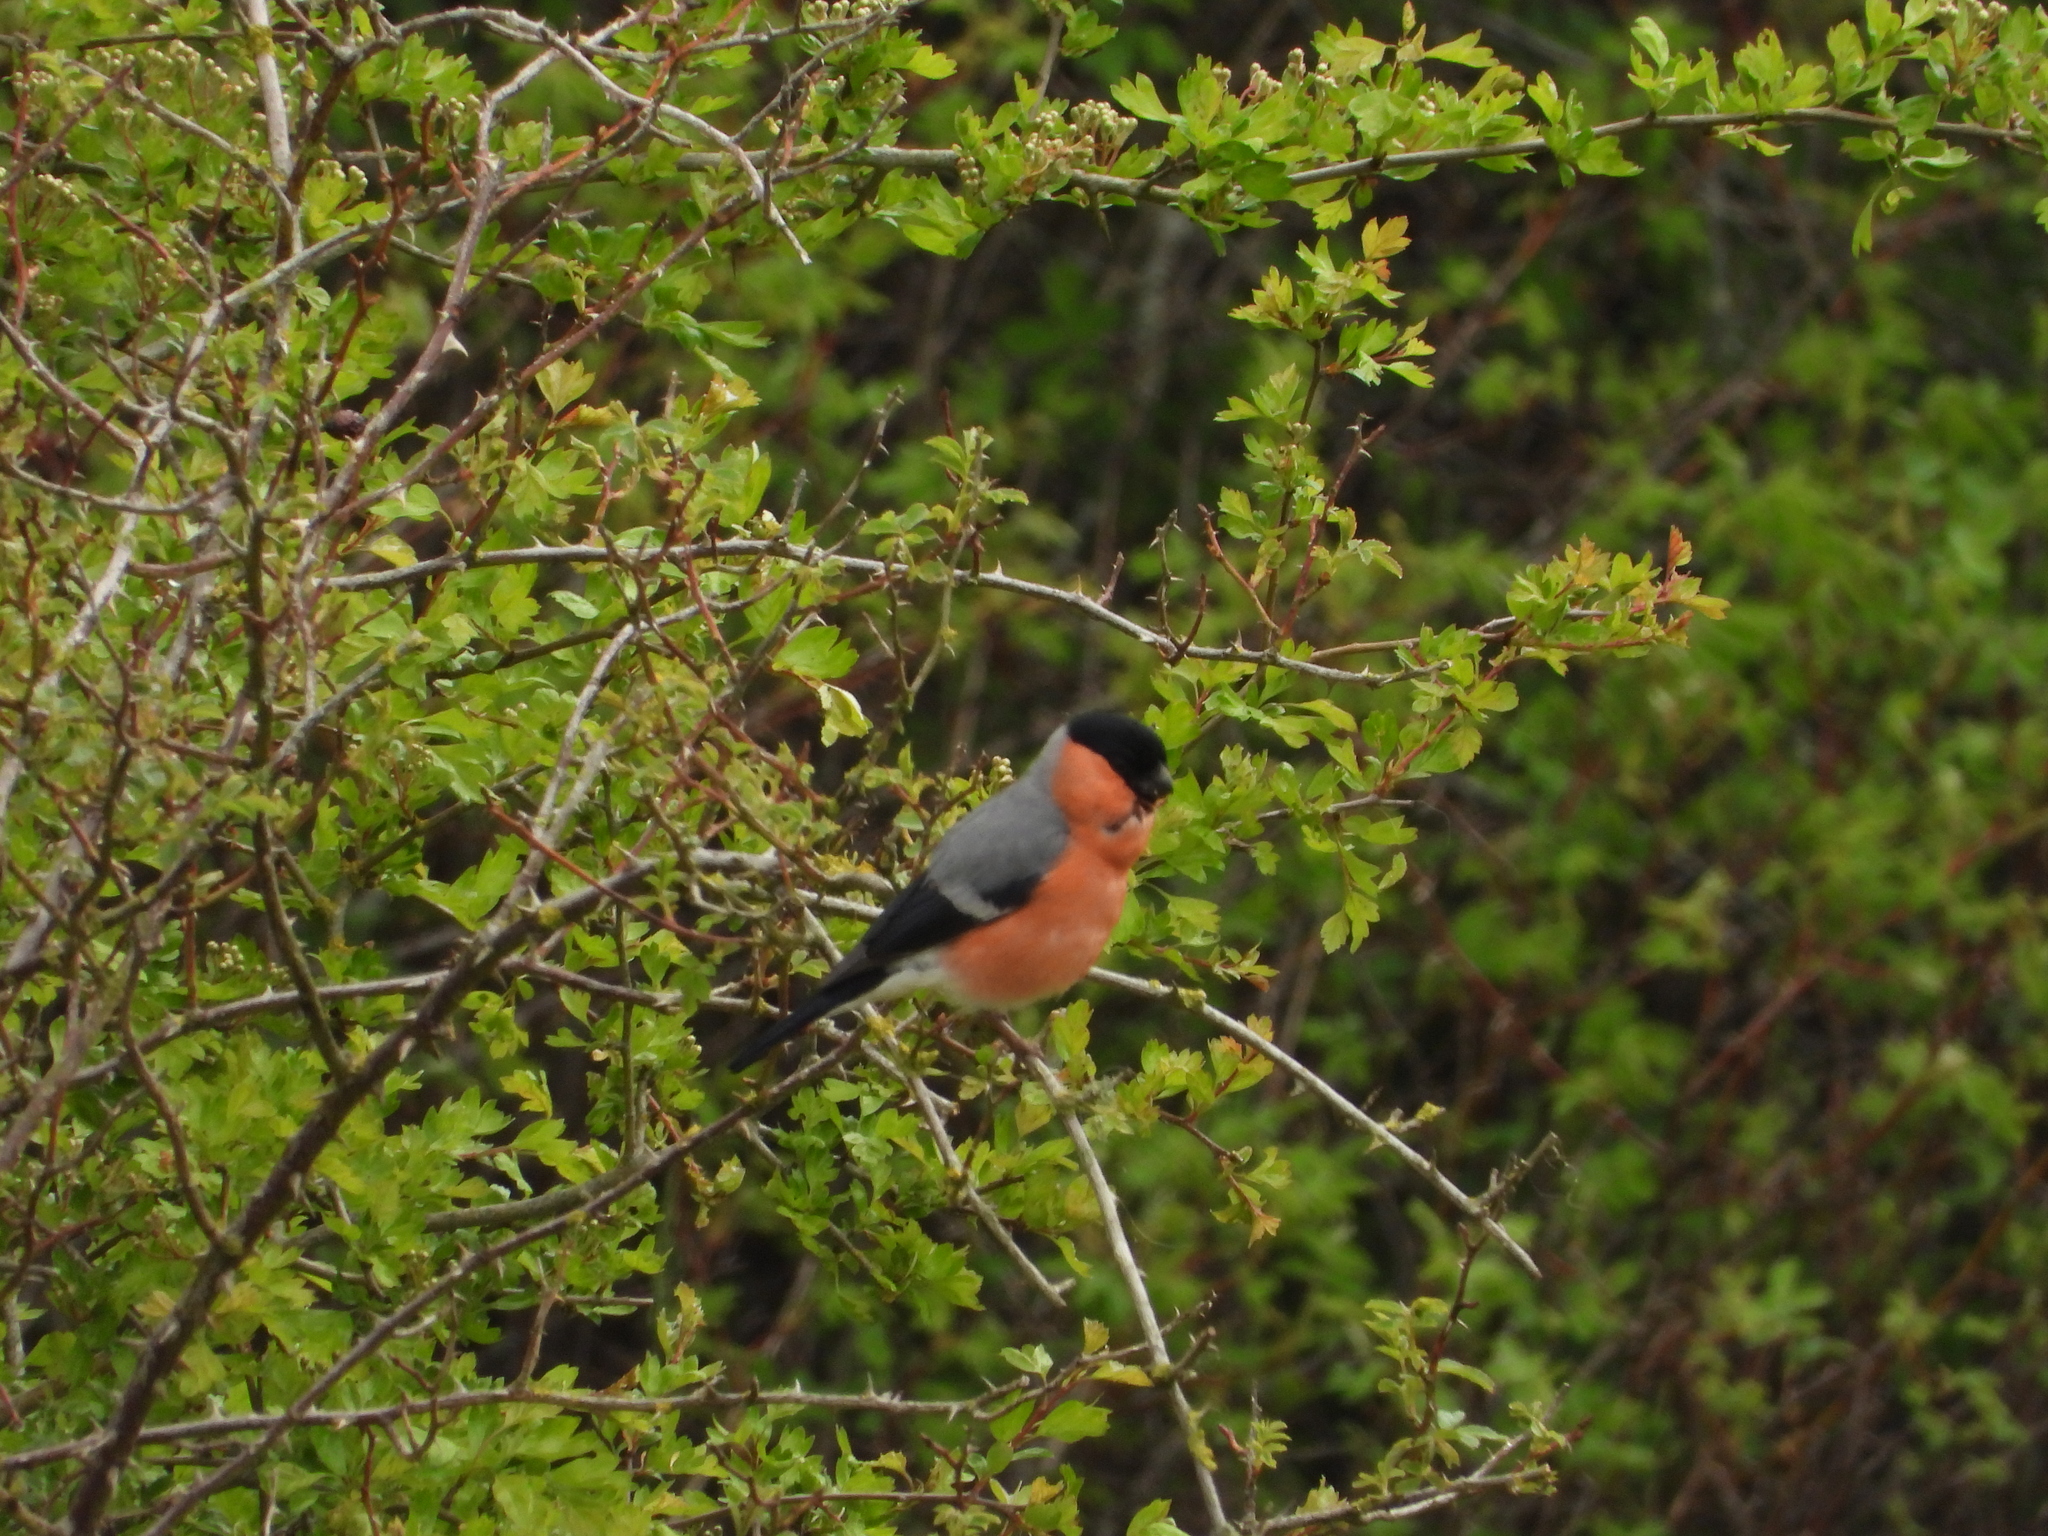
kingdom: Animalia
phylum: Chordata
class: Aves
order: Passeriformes
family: Fringillidae
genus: Pyrrhula
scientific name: Pyrrhula pyrrhula
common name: Eurasian bullfinch
